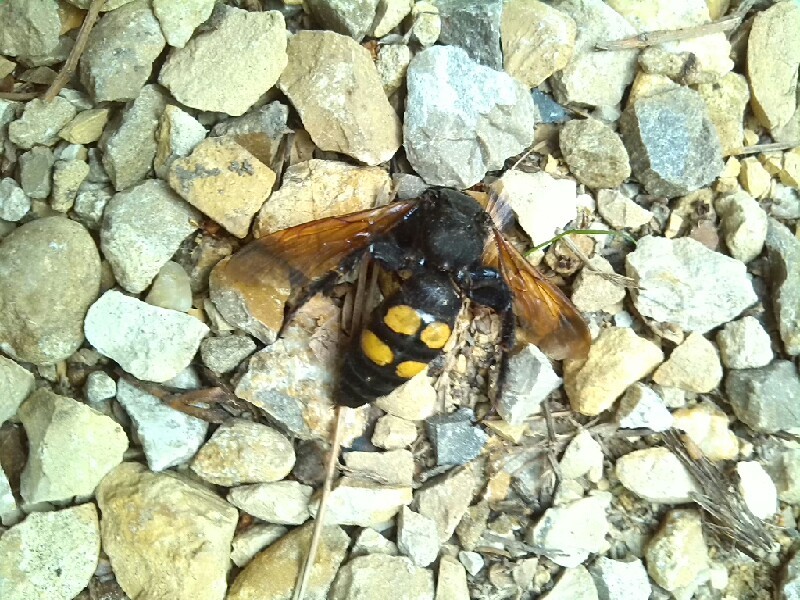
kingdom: Animalia
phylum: Arthropoda
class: Insecta
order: Hymenoptera
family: Scoliidae
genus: Megascolia
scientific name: Megascolia maculata
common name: Mammoth wasp
